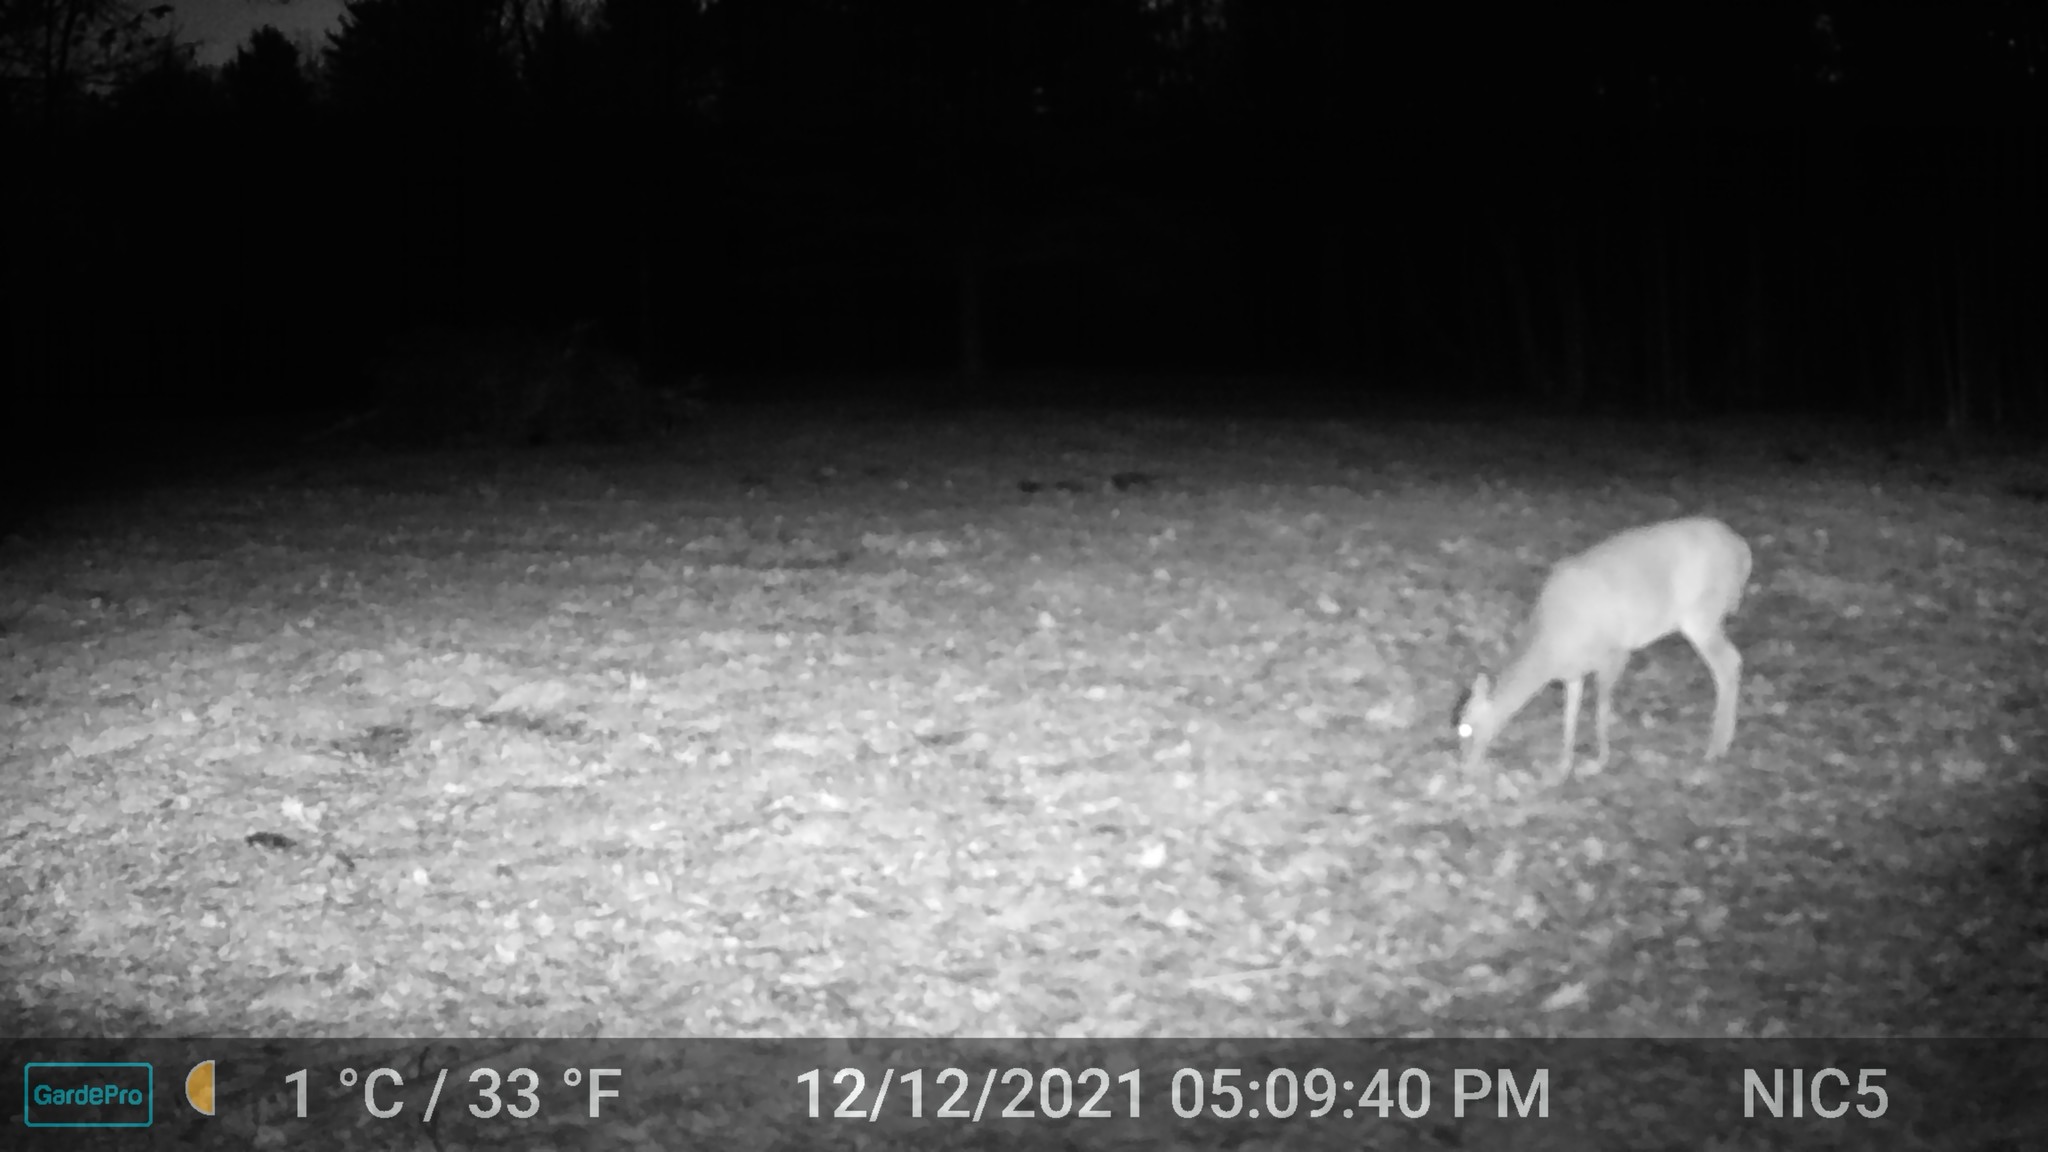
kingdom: Animalia
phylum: Chordata
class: Mammalia
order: Artiodactyla
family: Cervidae
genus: Odocoileus
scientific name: Odocoileus virginianus
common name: White-tailed deer
